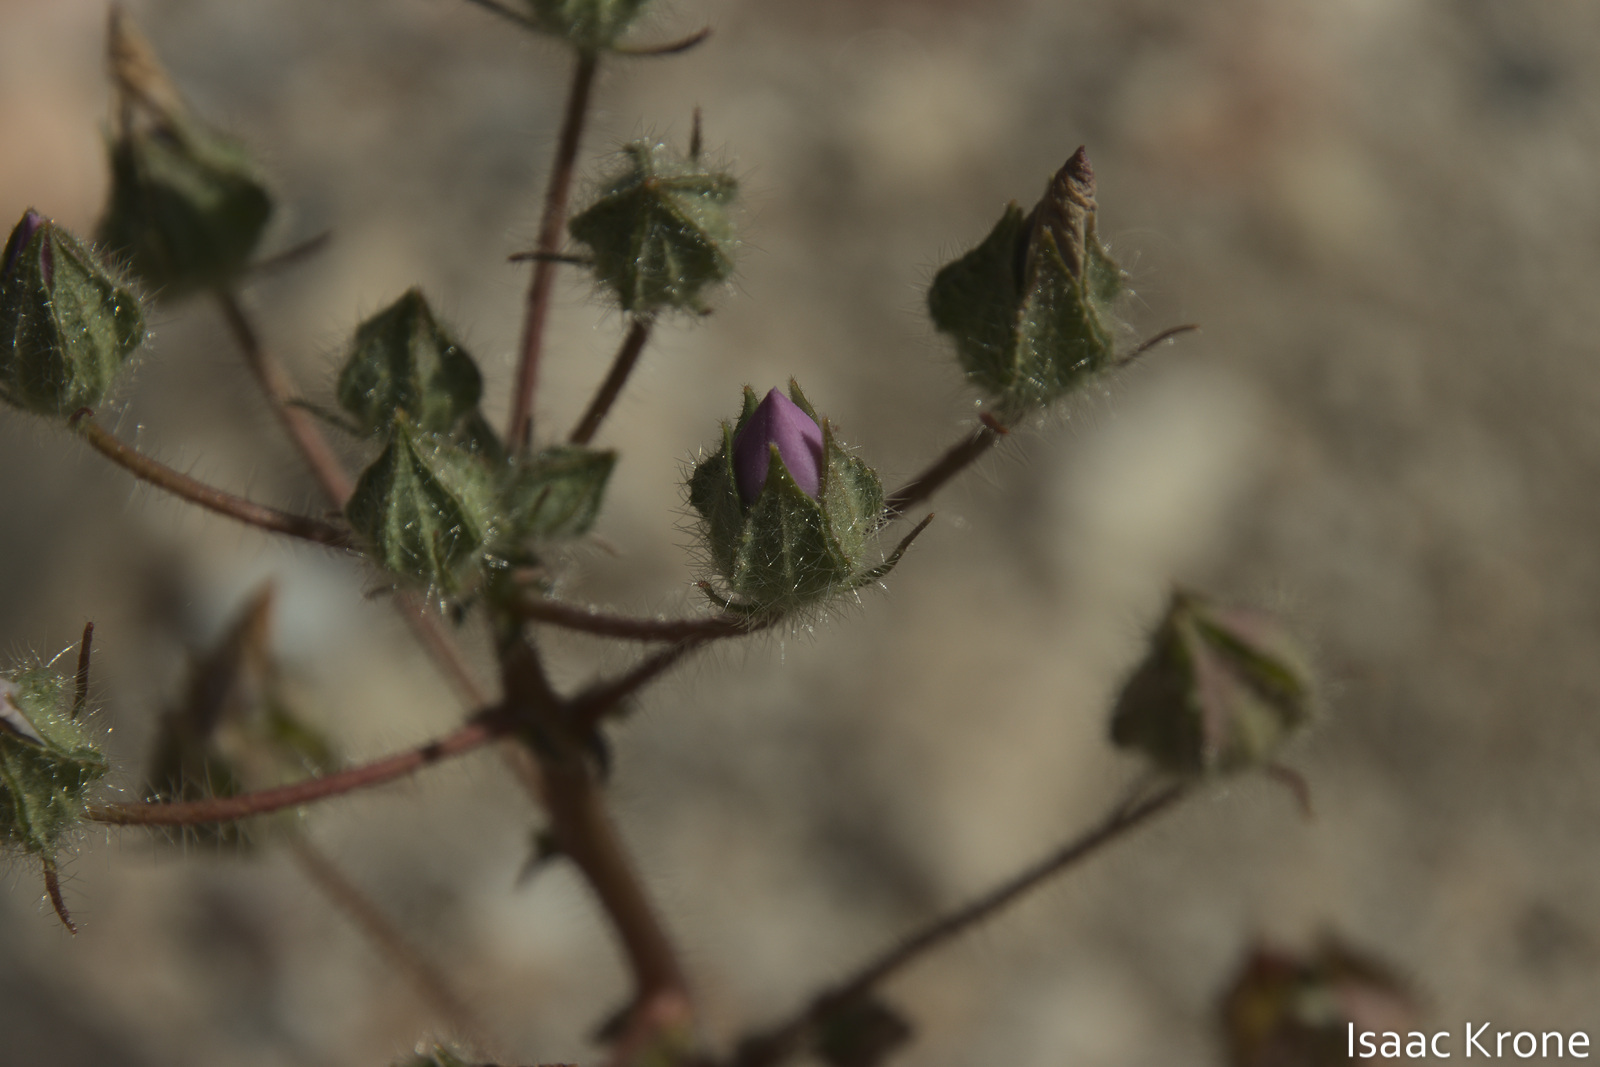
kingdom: Plantae
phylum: Tracheophyta
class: Magnoliopsida
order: Malvales
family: Malvaceae
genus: Eremalche
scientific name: Eremalche rotundifolia
